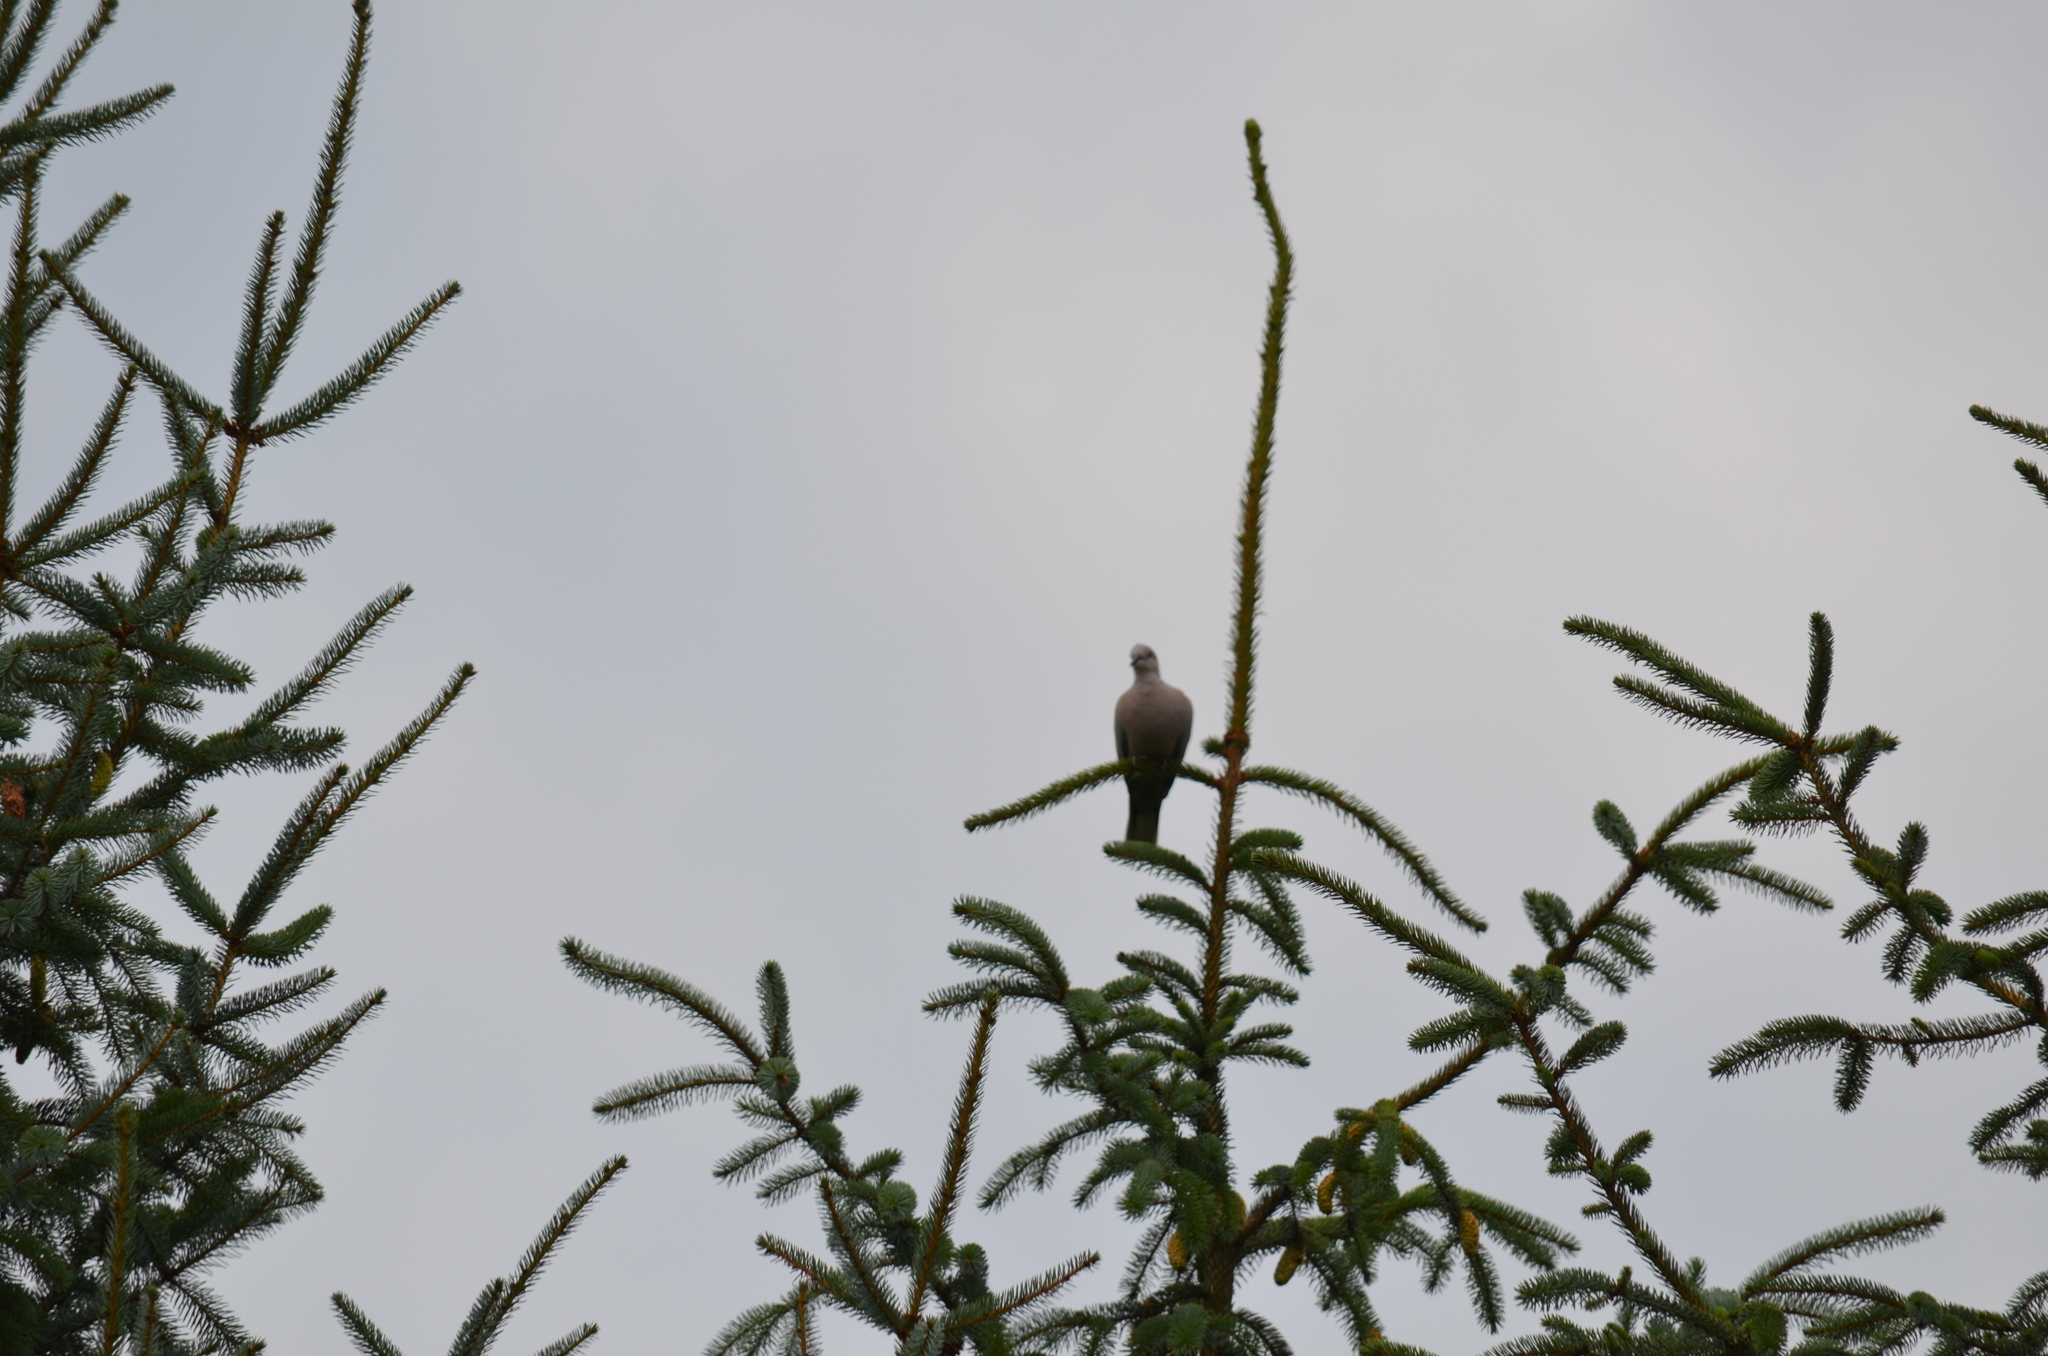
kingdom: Animalia
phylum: Chordata
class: Aves
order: Columbiformes
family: Columbidae
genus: Streptopelia
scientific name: Streptopelia decaocto
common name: Eurasian collared dove
